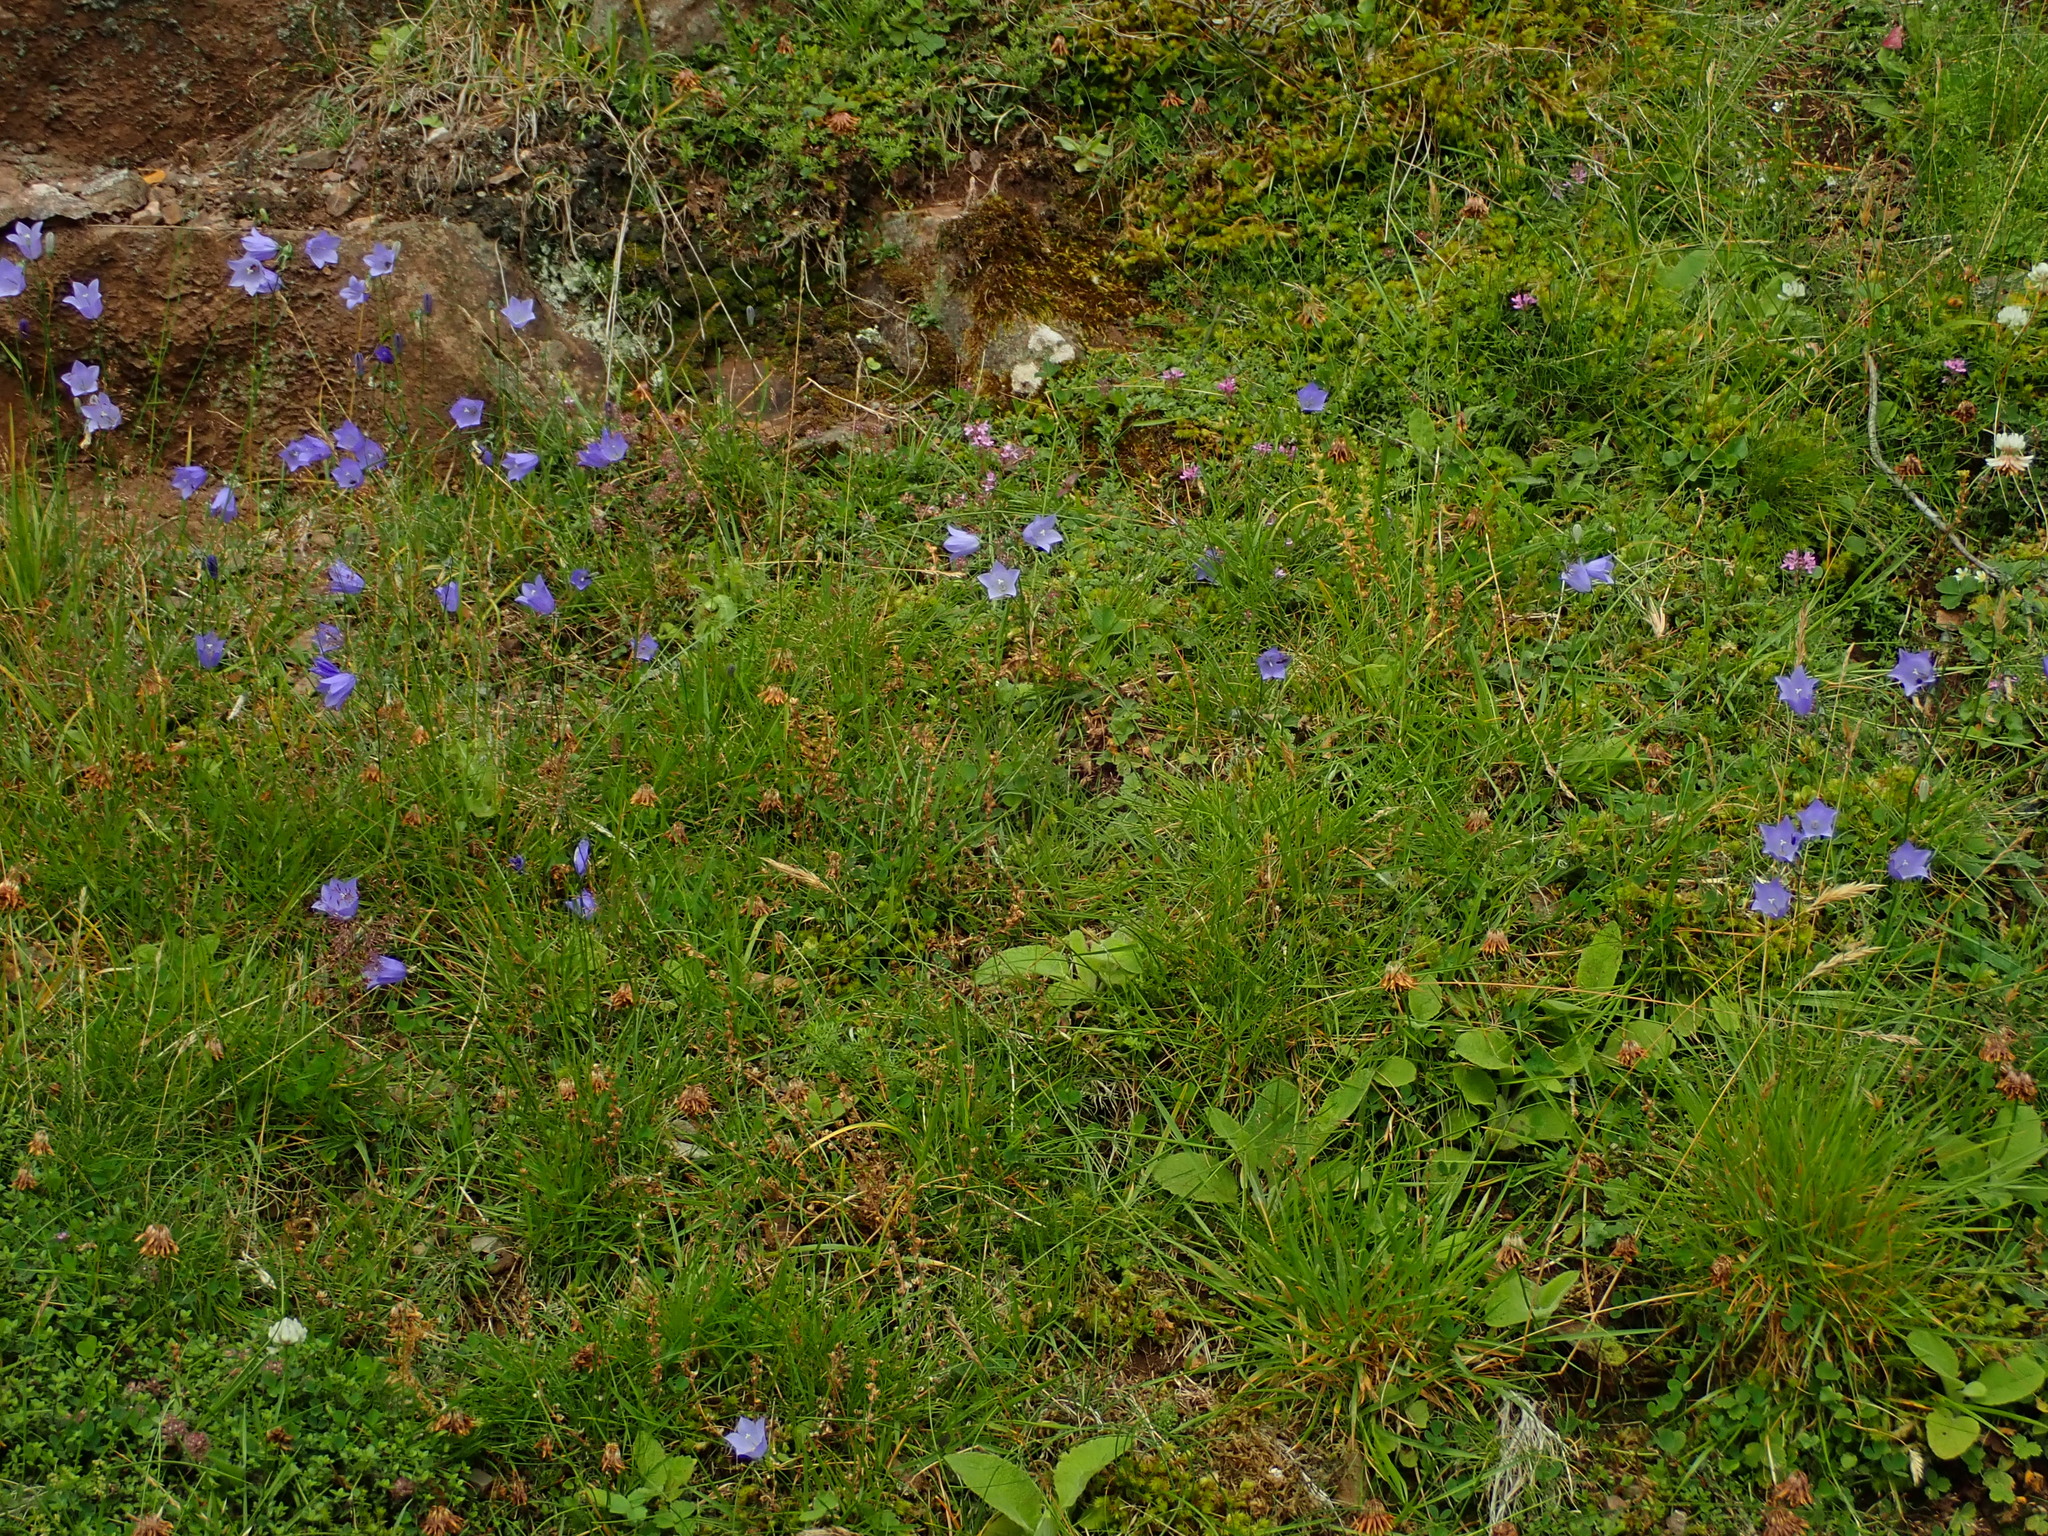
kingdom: Plantae
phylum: Tracheophyta
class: Magnoliopsida
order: Asterales
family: Campanulaceae
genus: Campanula
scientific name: Campanula rotundifolia
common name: Harebell
